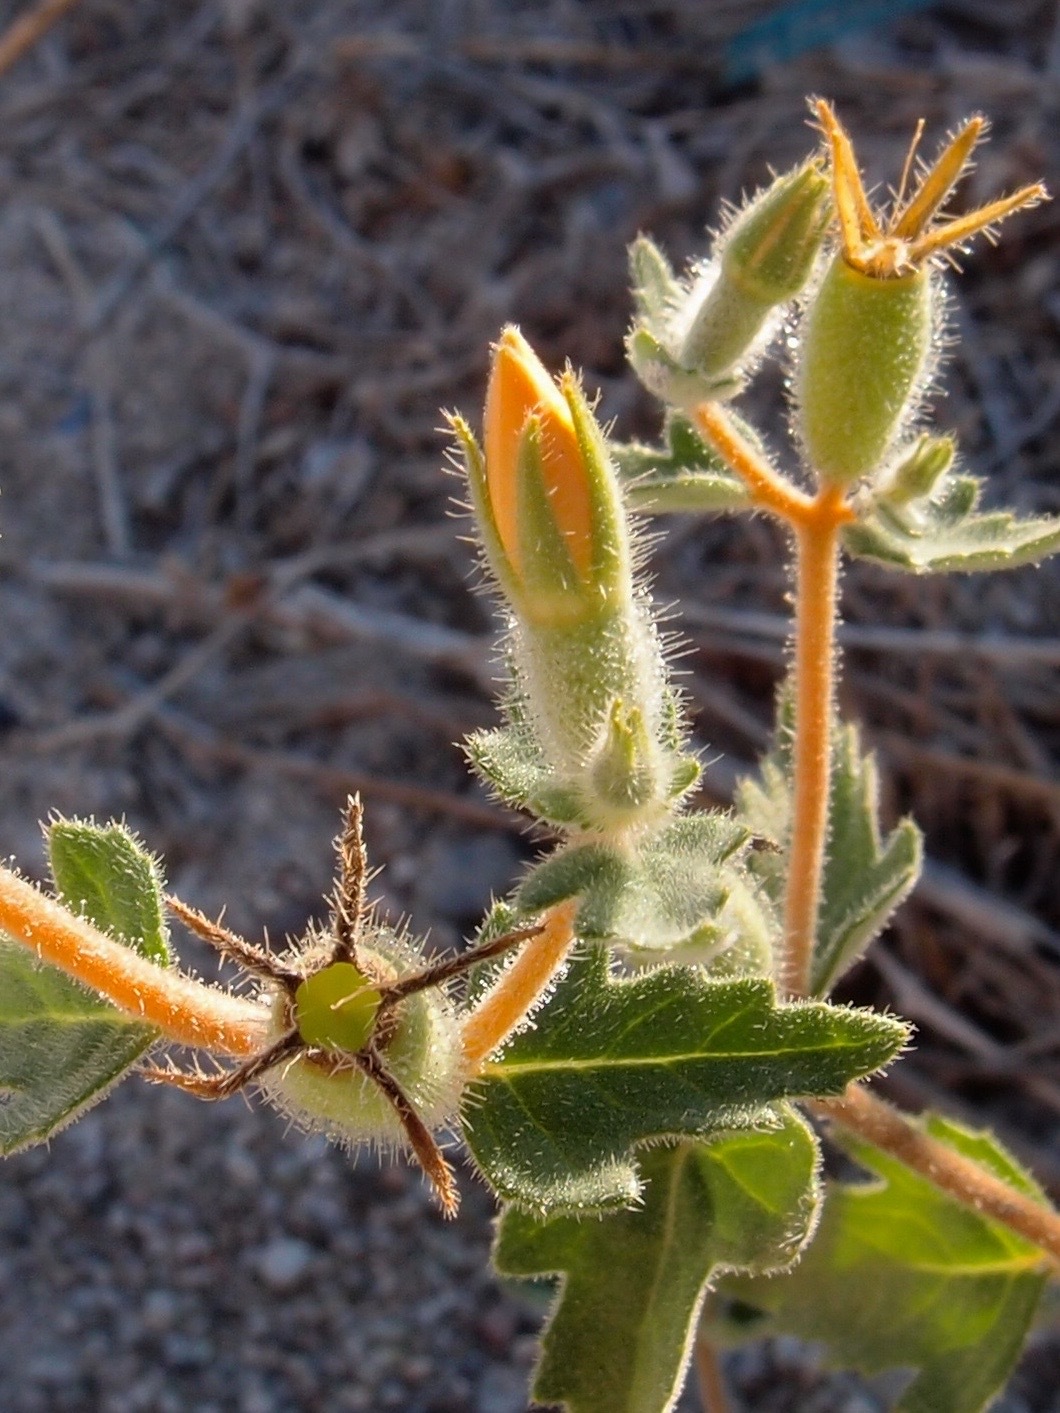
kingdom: Plantae
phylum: Tracheophyta
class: Magnoliopsida
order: Cornales
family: Loasaceae
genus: Mentzelia
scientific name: Mentzelia adhaerens
